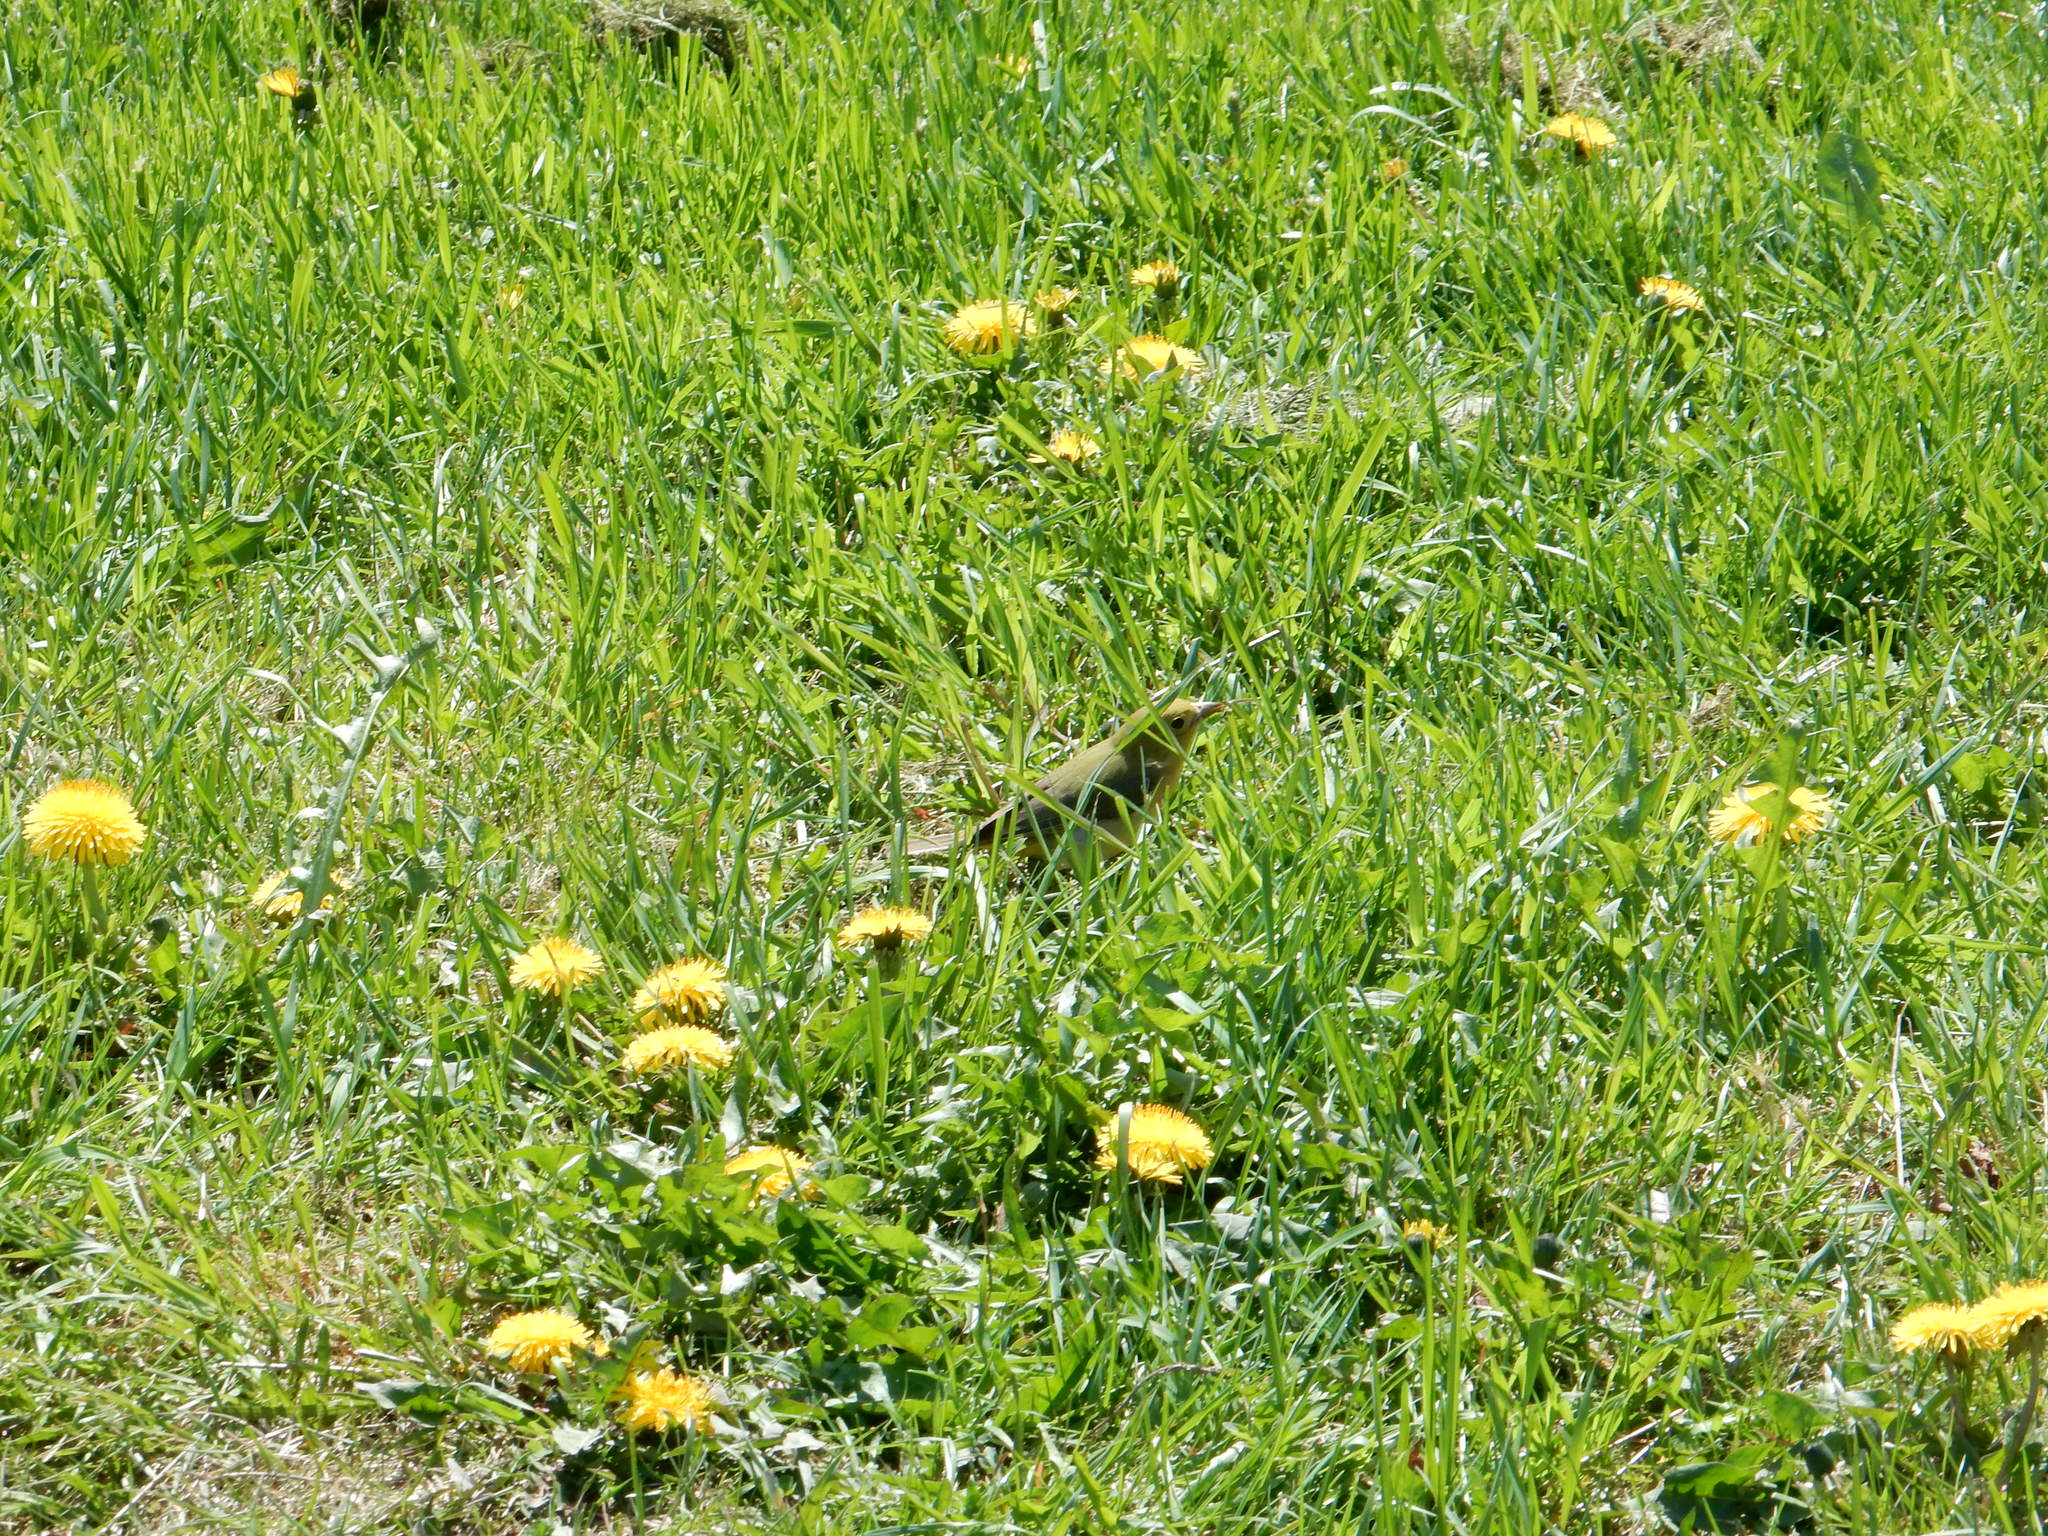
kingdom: Animalia
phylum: Chordata
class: Aves
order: Passeriformes
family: Cardinalidae
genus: Piranga
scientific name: Piranga olivacea
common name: Scarlet tanager
